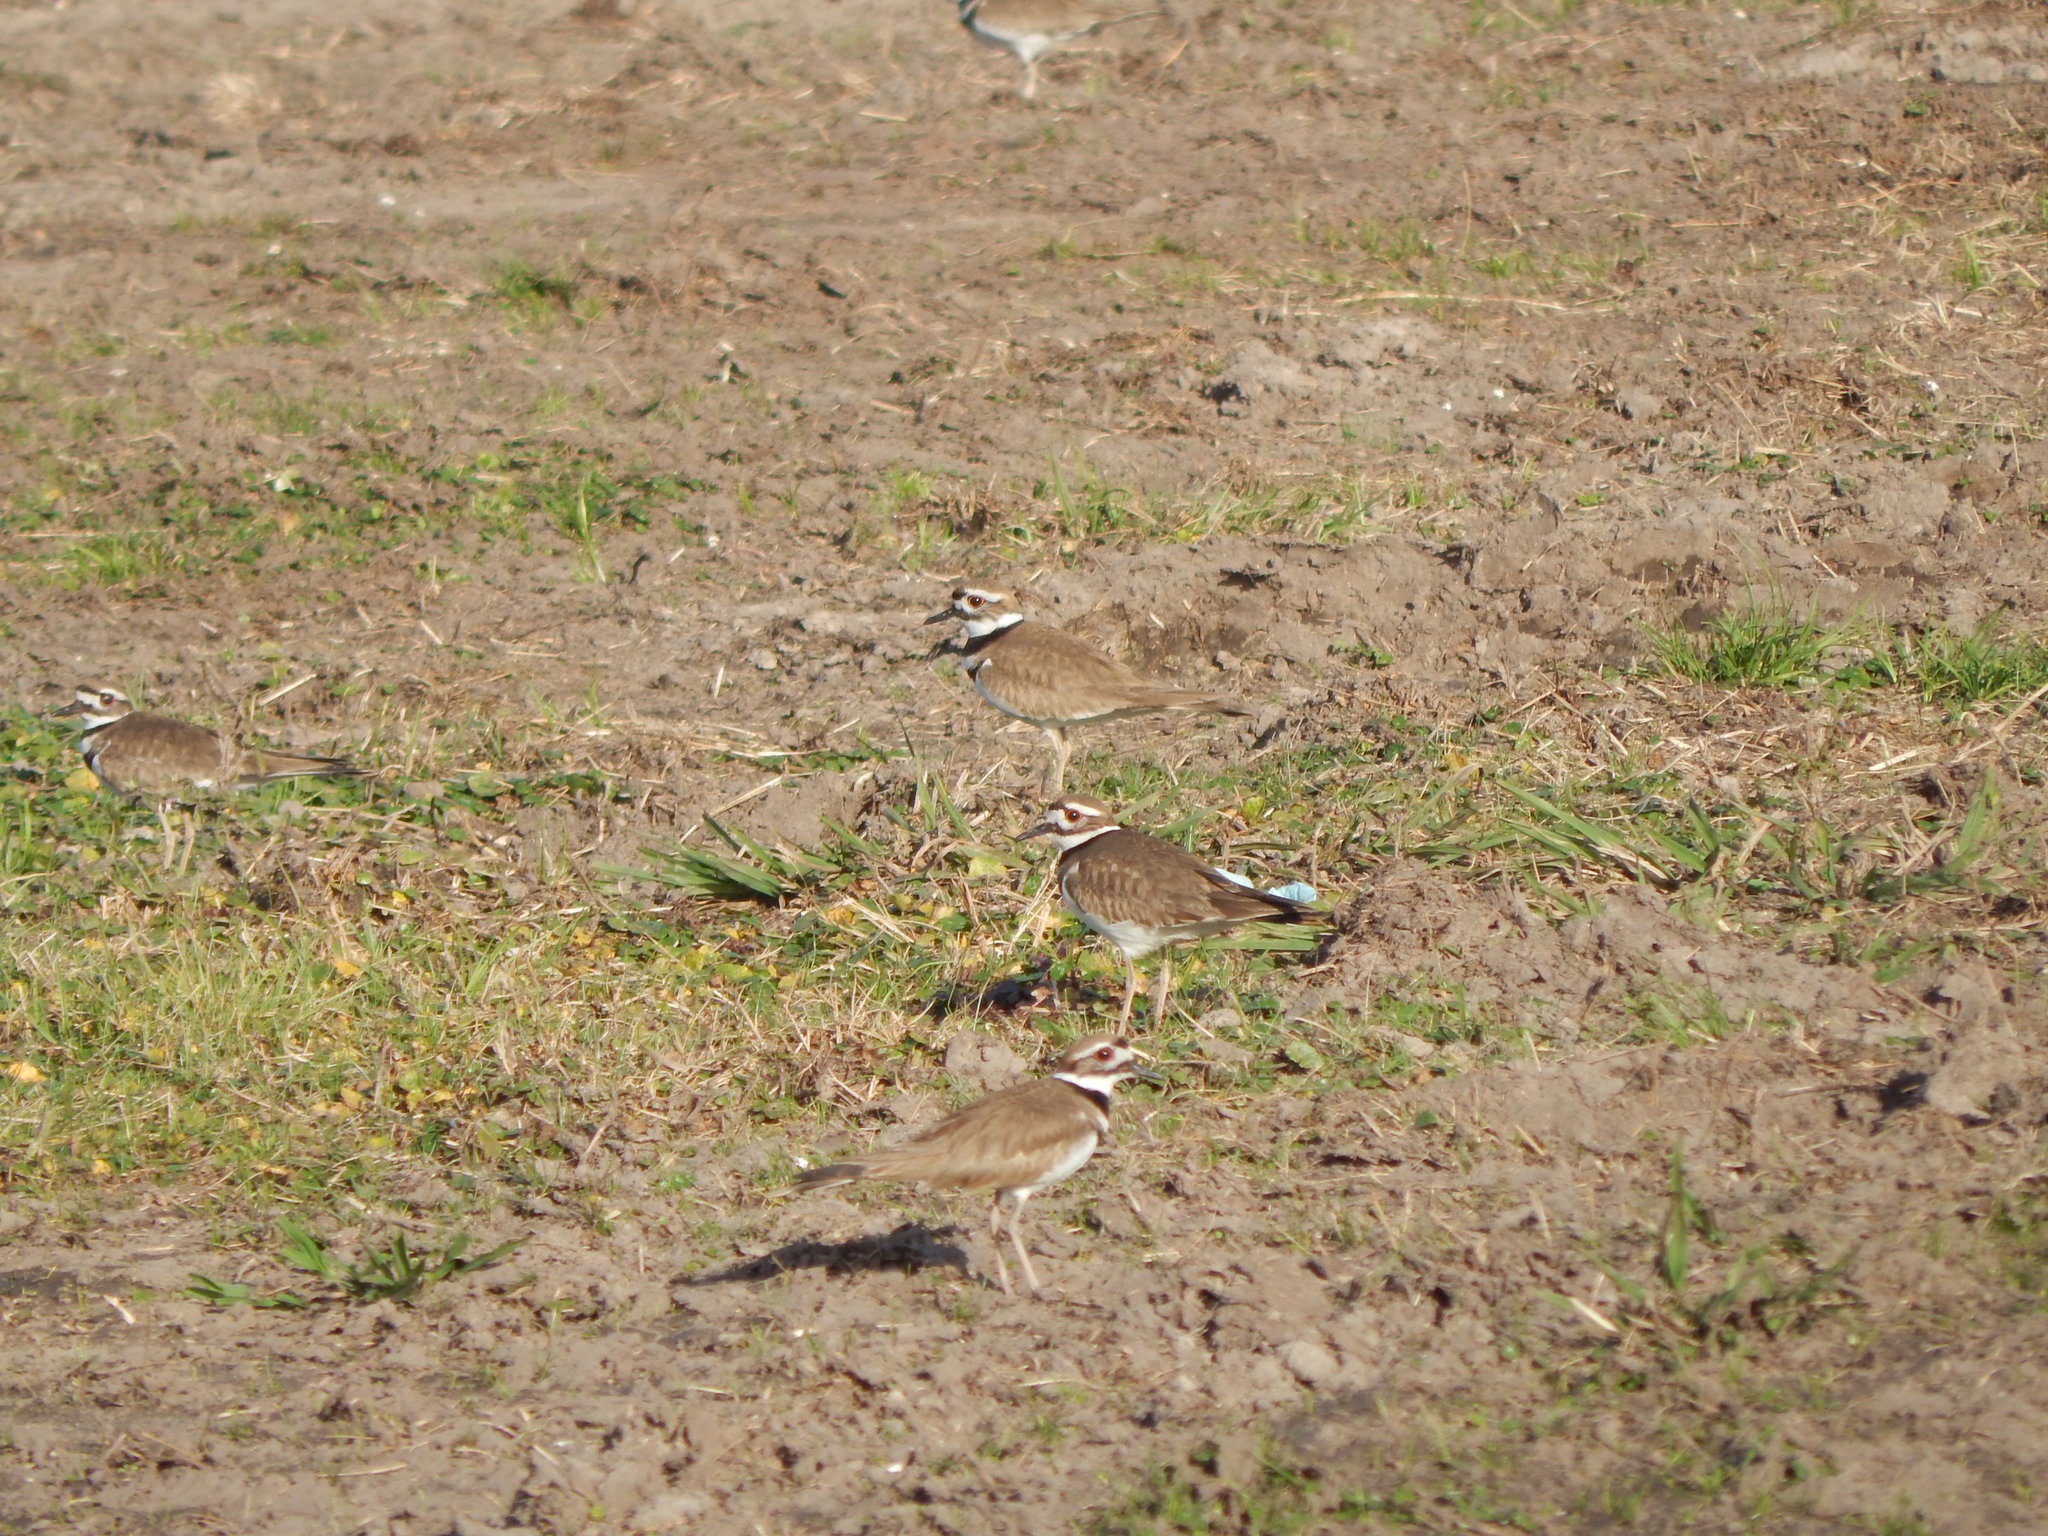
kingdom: Animalia
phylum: Chordata
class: Aves
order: Charadriiformes
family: Charadriidae
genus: Charadrius
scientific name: Charadrius vociferus
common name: Killdeer
